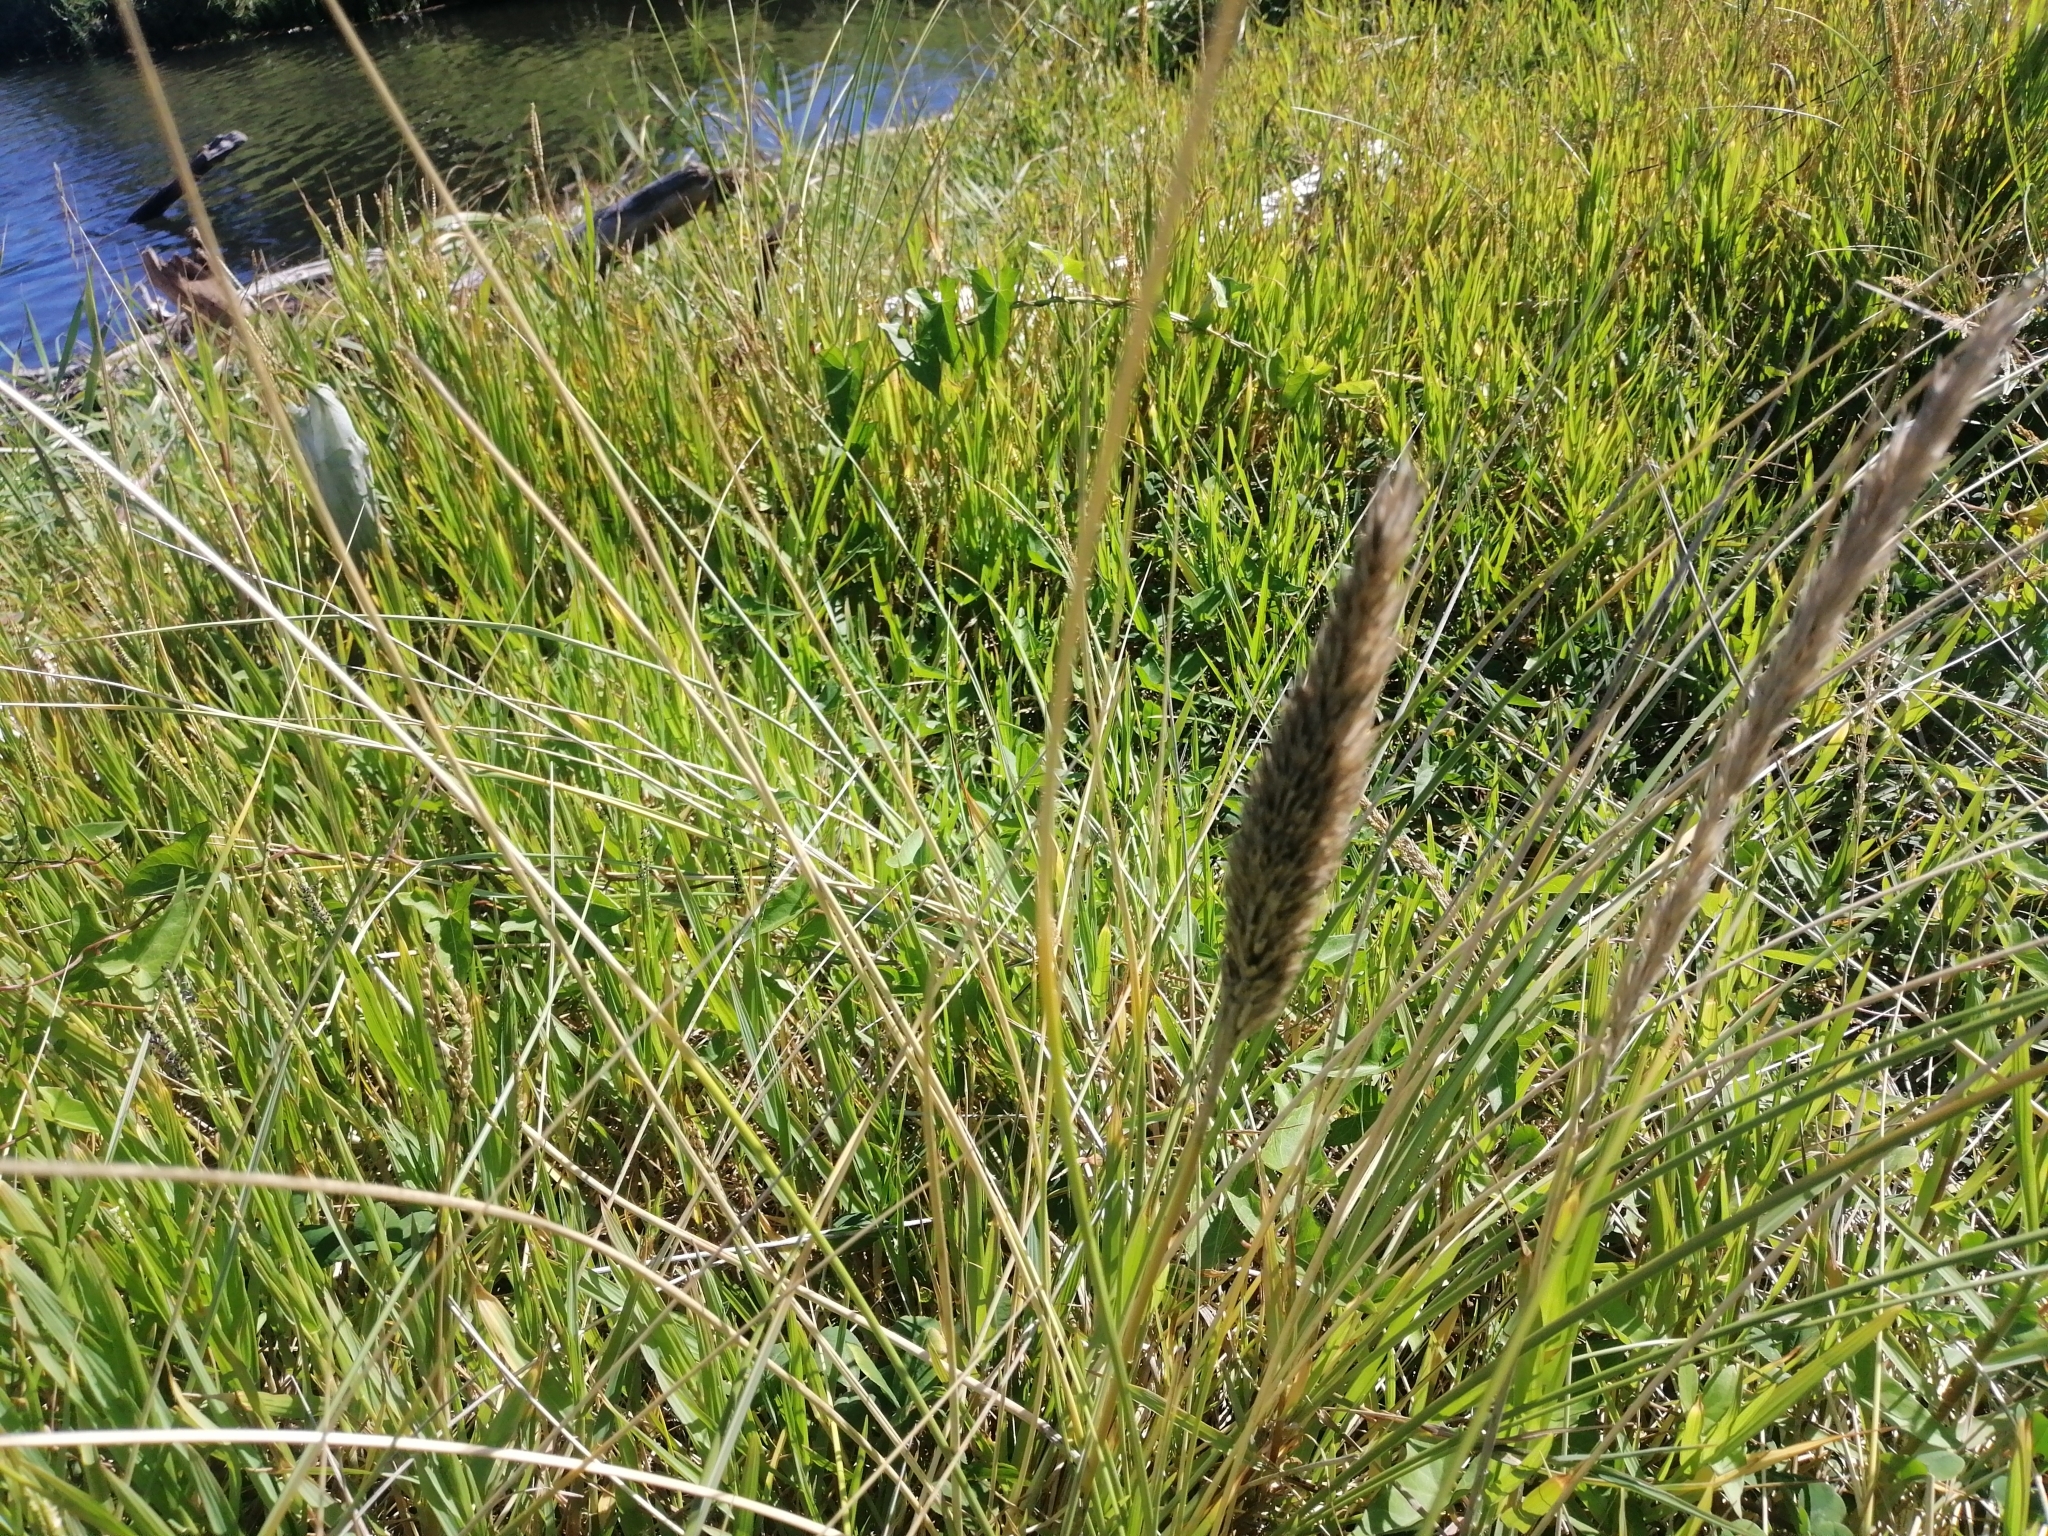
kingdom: Plantae
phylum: Tracheophyta
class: Liliopsida
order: Poales
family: Poaceae
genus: Calamagrostis
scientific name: Calamagrostis arenaria
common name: European beachgrass
